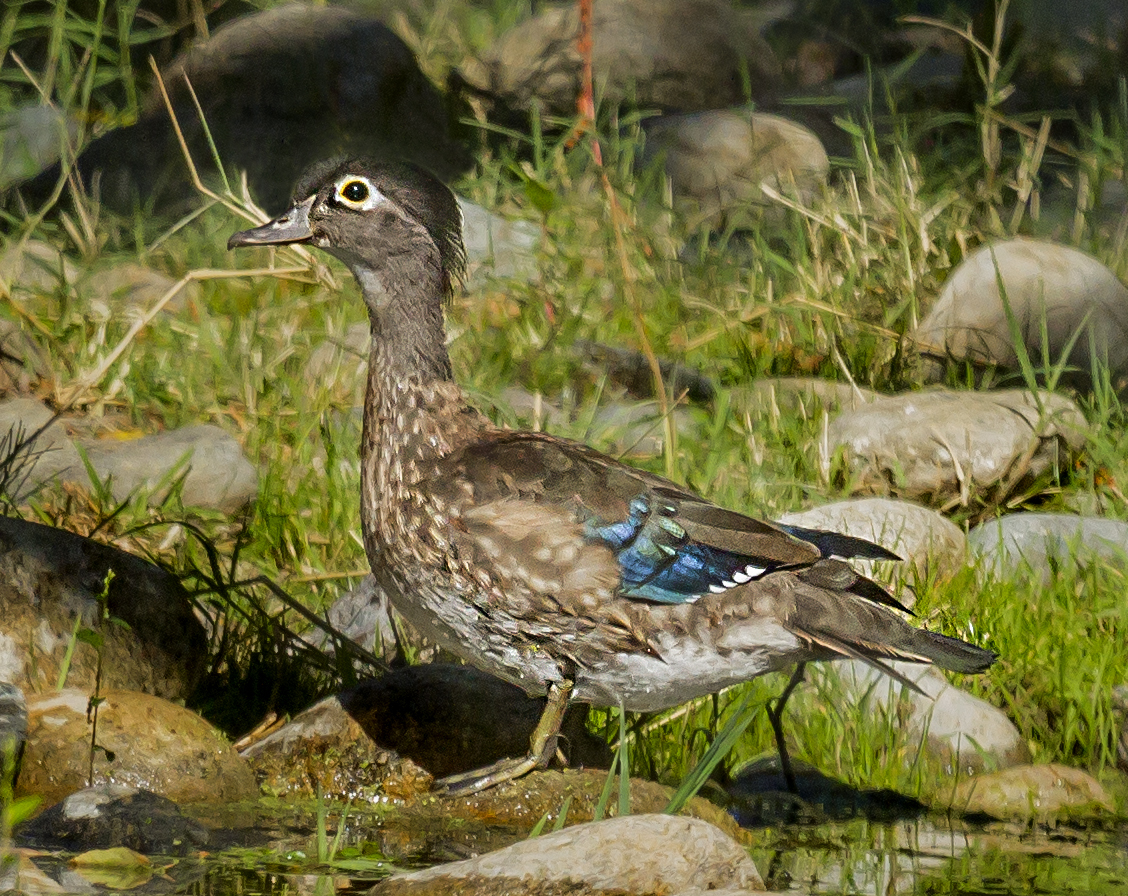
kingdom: Animalia
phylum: Chordata
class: Aves
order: Anseriformes
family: Anatidae
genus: Aix
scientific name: Aix sponsa
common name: Wood duck
